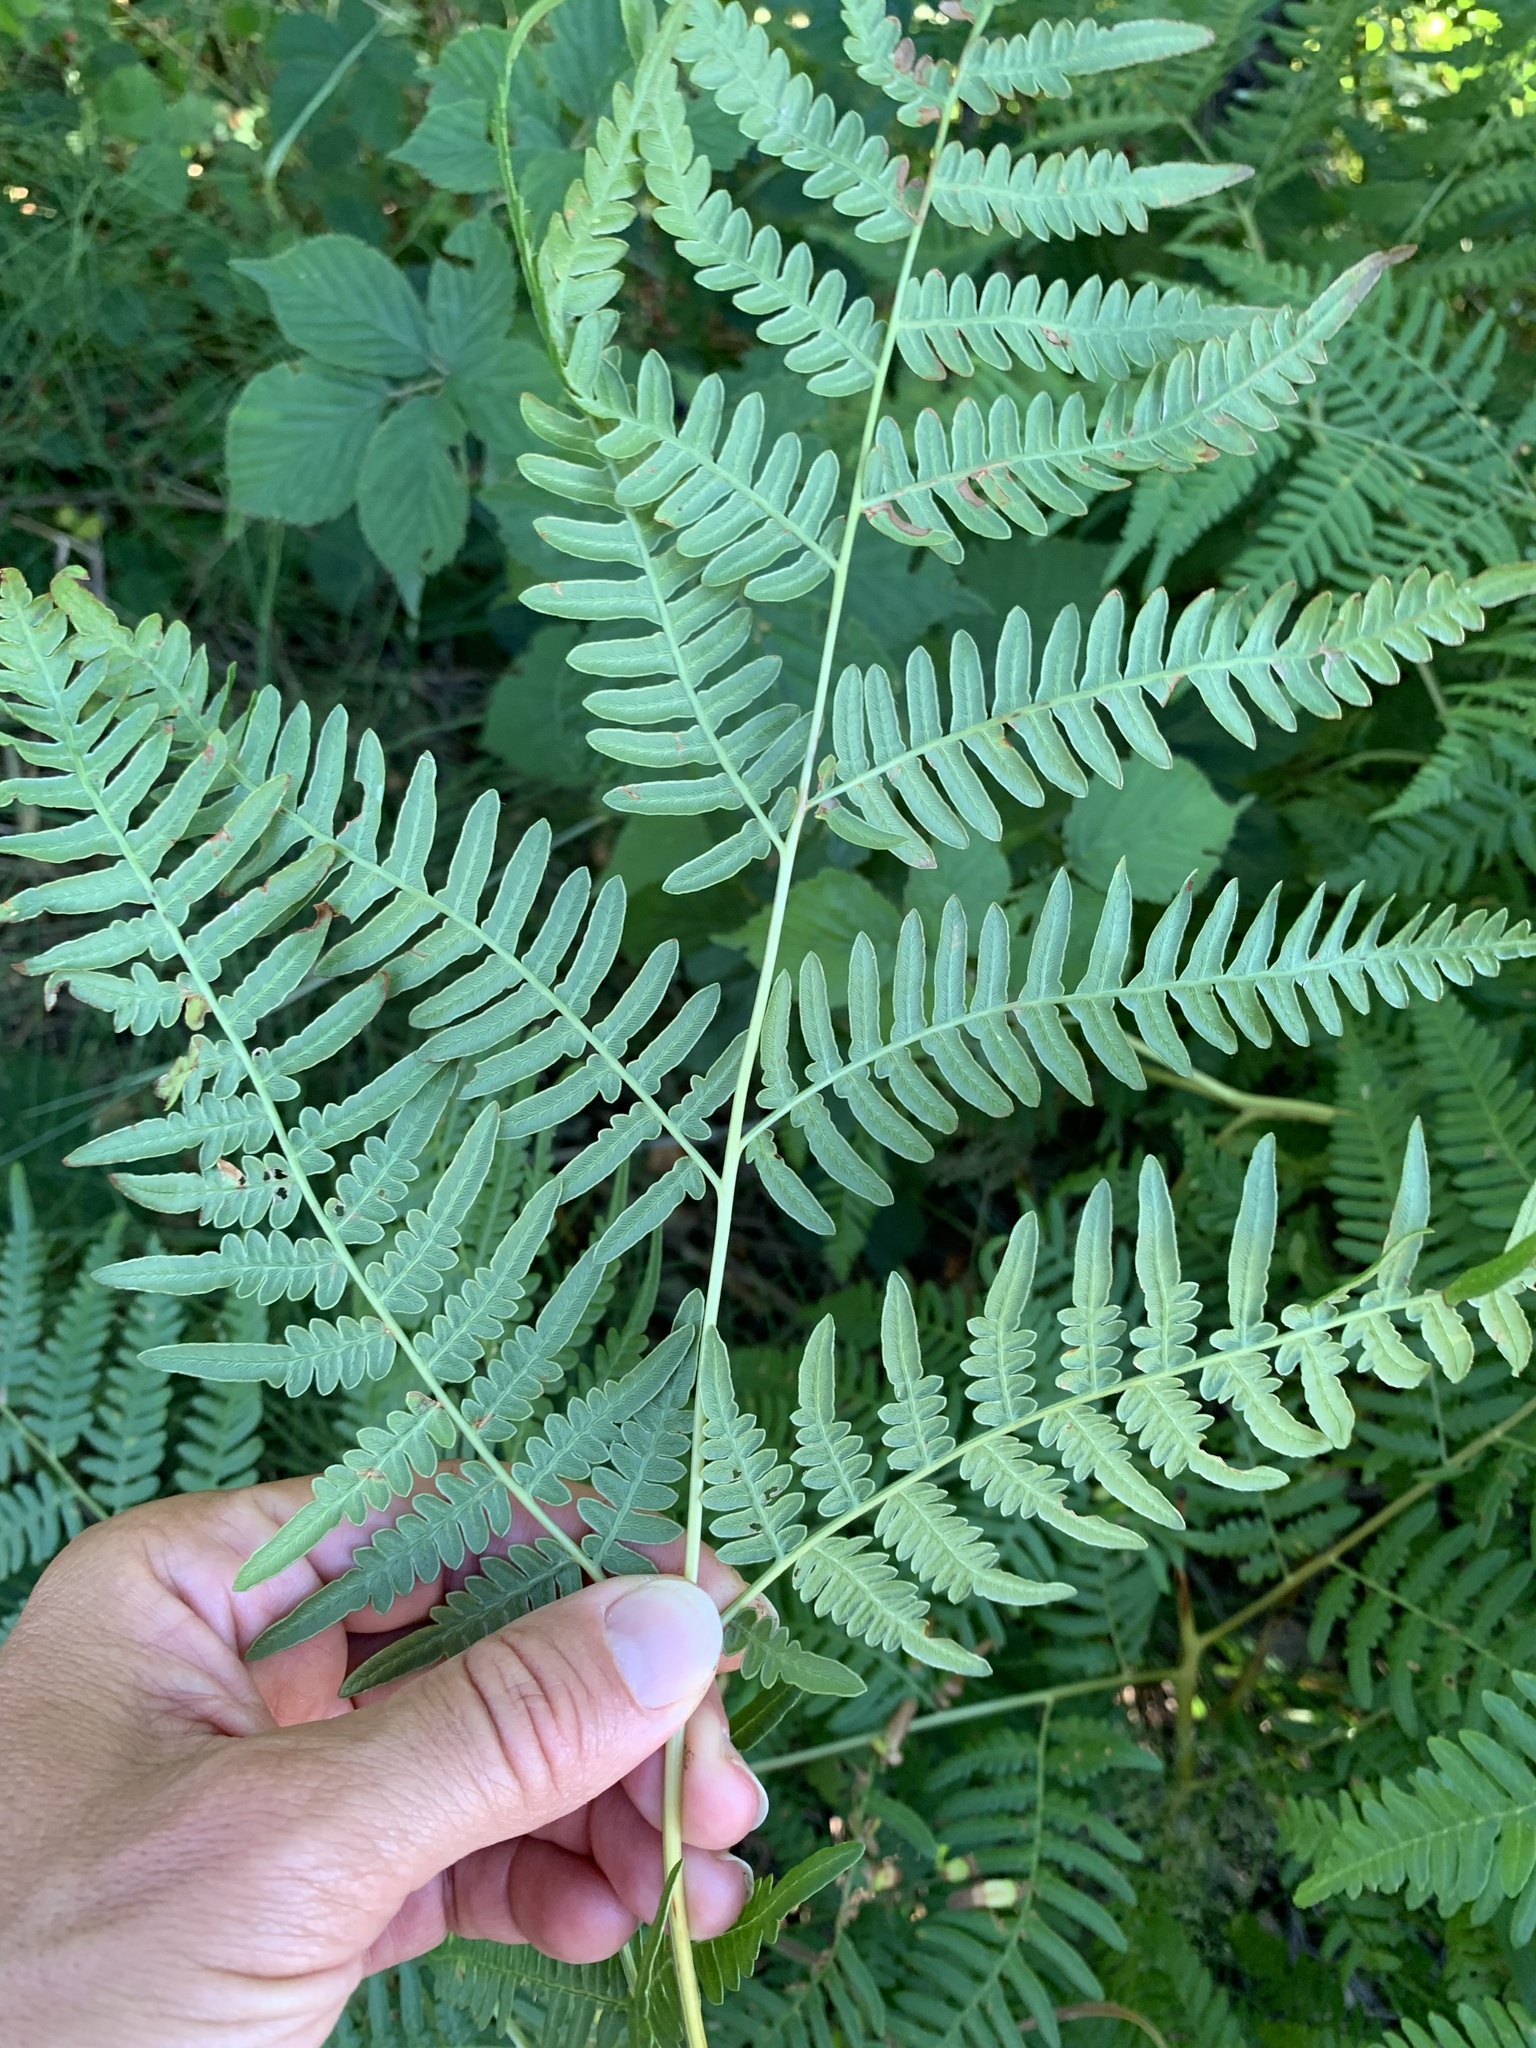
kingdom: Plantae
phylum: Tracheophyta
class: Polypodiopsida
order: Polypodiales
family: Dennstaedtiaceae
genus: Pteridium
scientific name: Pteridium aquilinum
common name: Bracken
